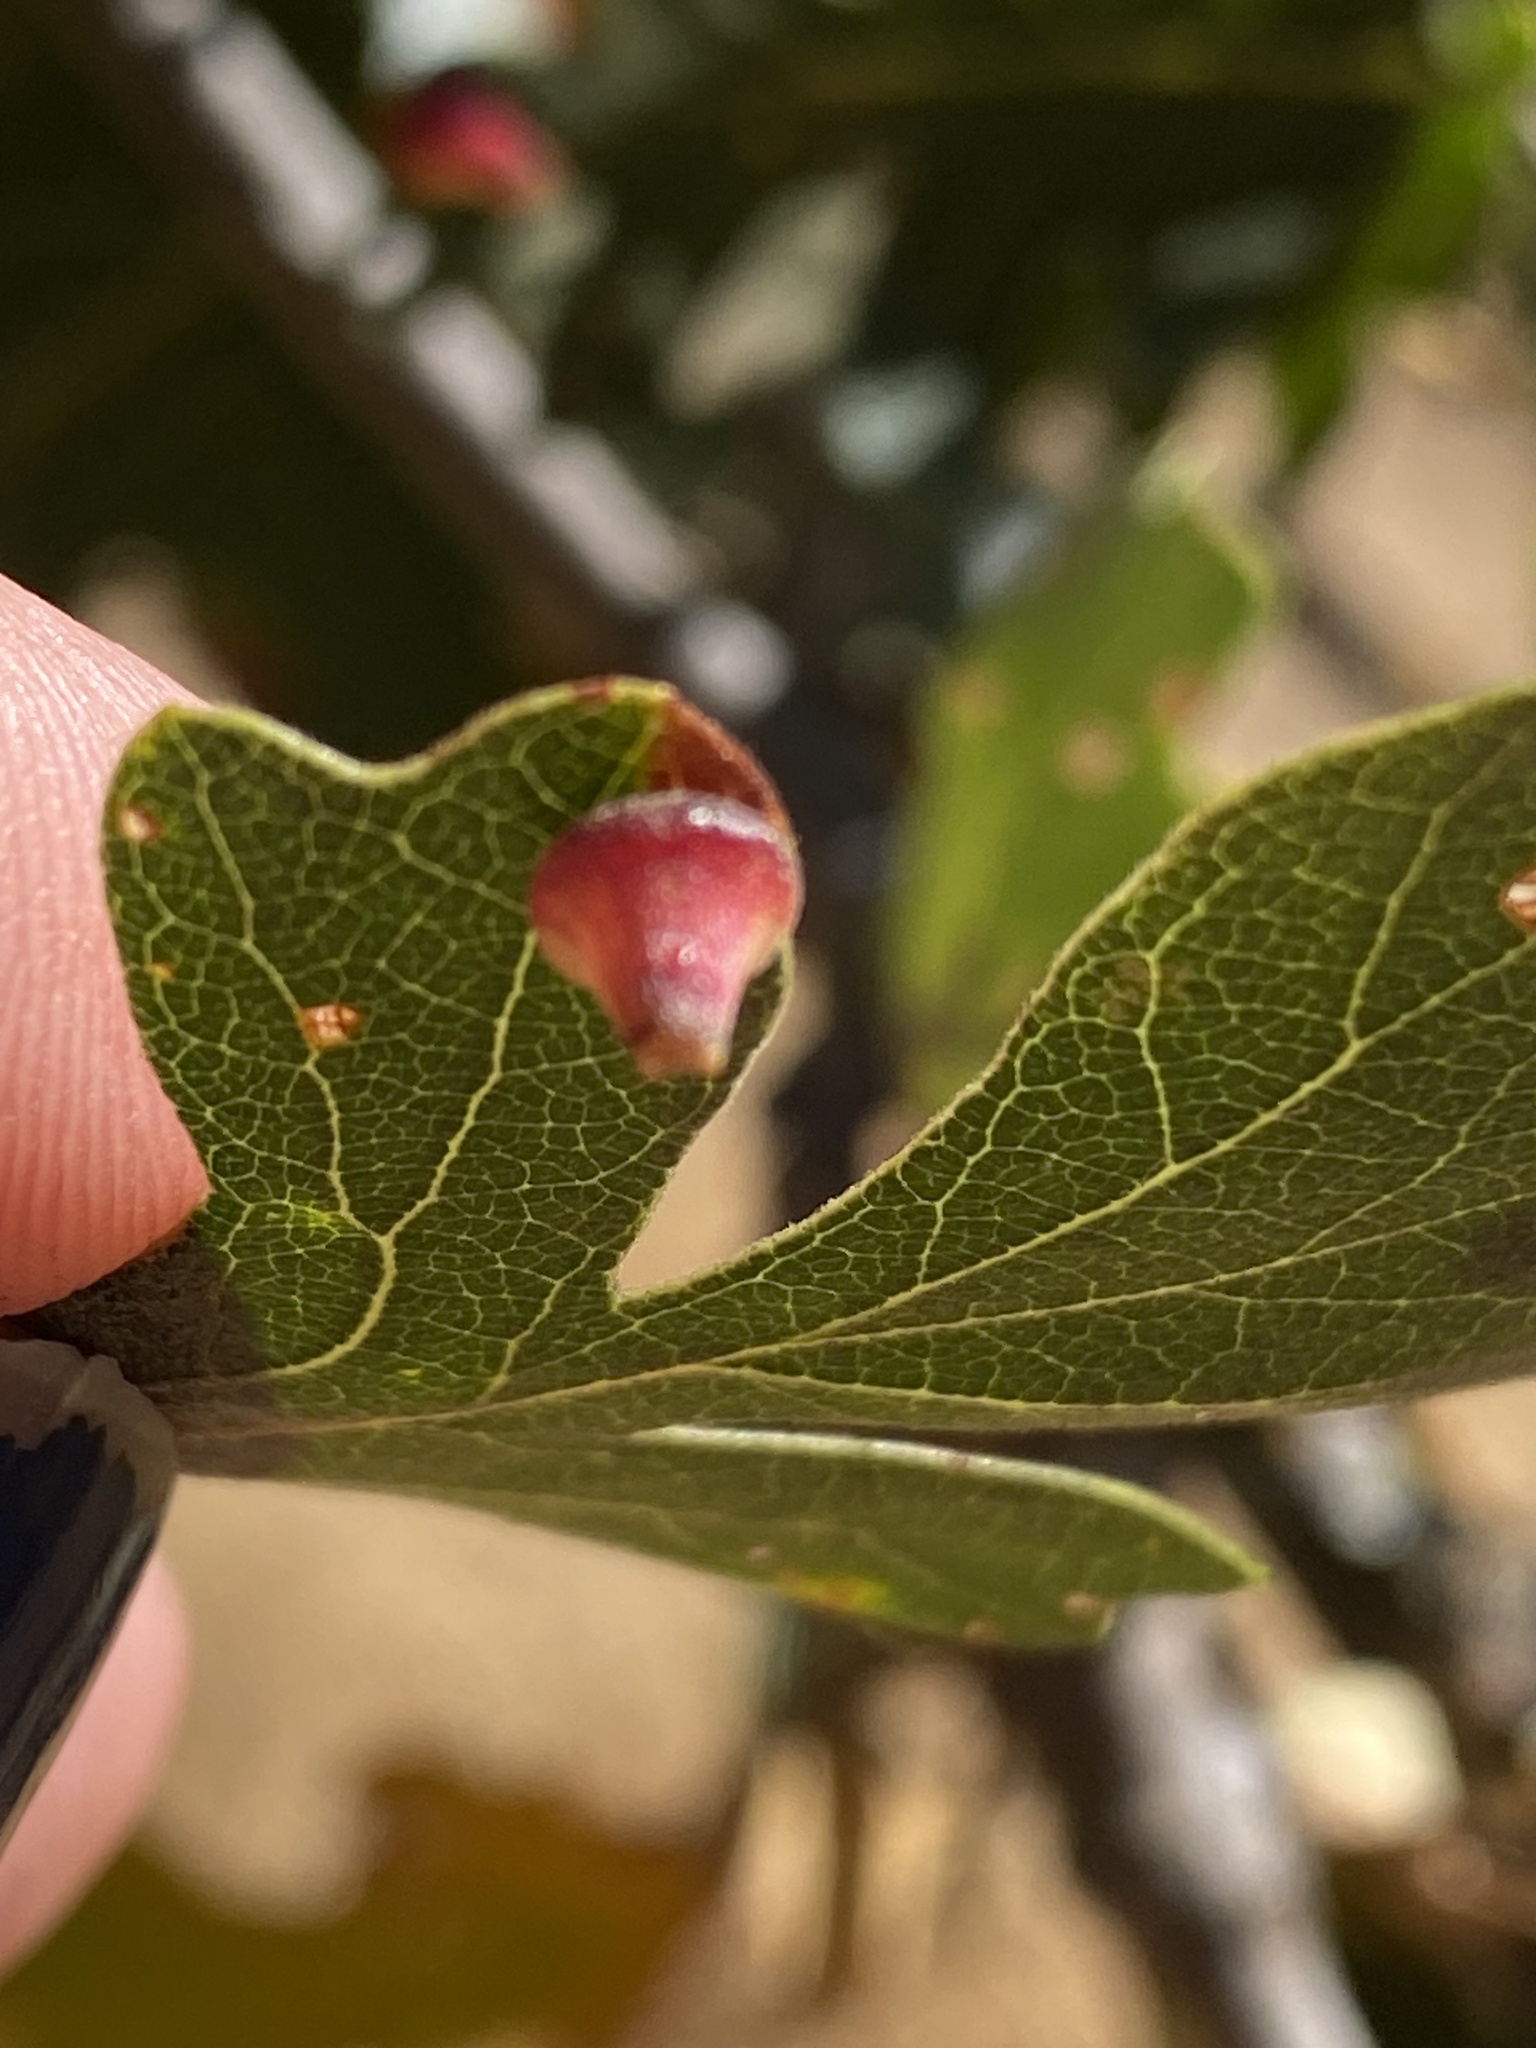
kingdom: Animalia
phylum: Arthropoda
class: Insecta
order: Hymenoptera
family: Cynipidae
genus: Andricus
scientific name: Andricus
